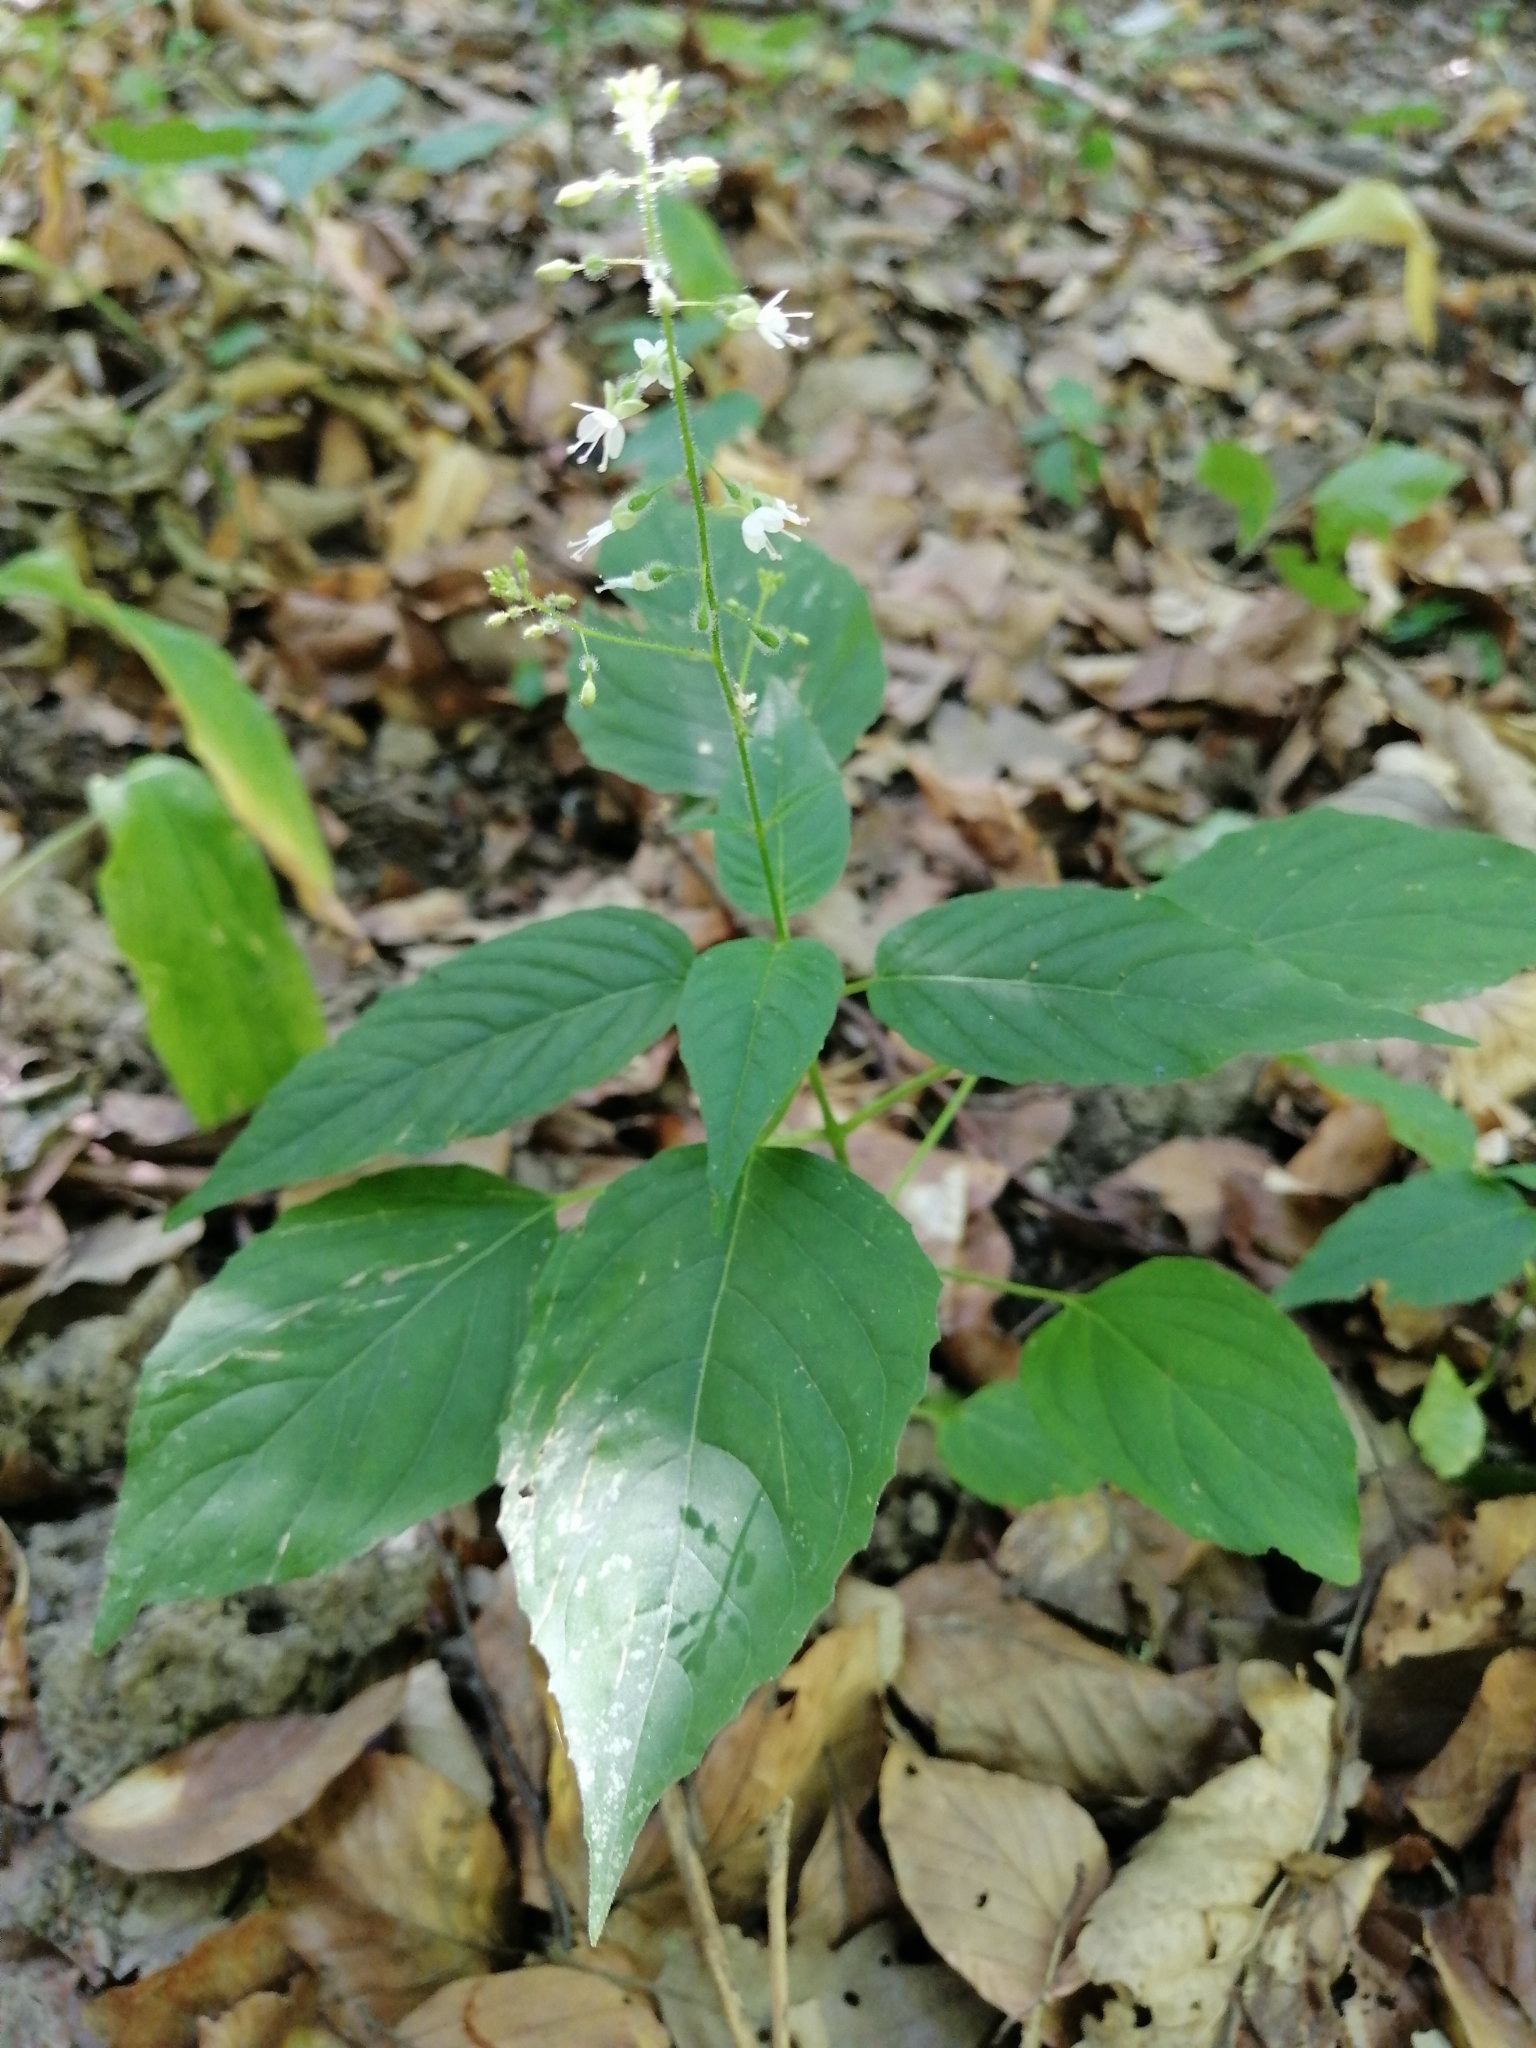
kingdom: Plantae
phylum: Tracheophyta
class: Magnoliopsida
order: Myrtales
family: Onagraceae
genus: Circaea
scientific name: Circaea lutetiana
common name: Enchanter's-nightshade
